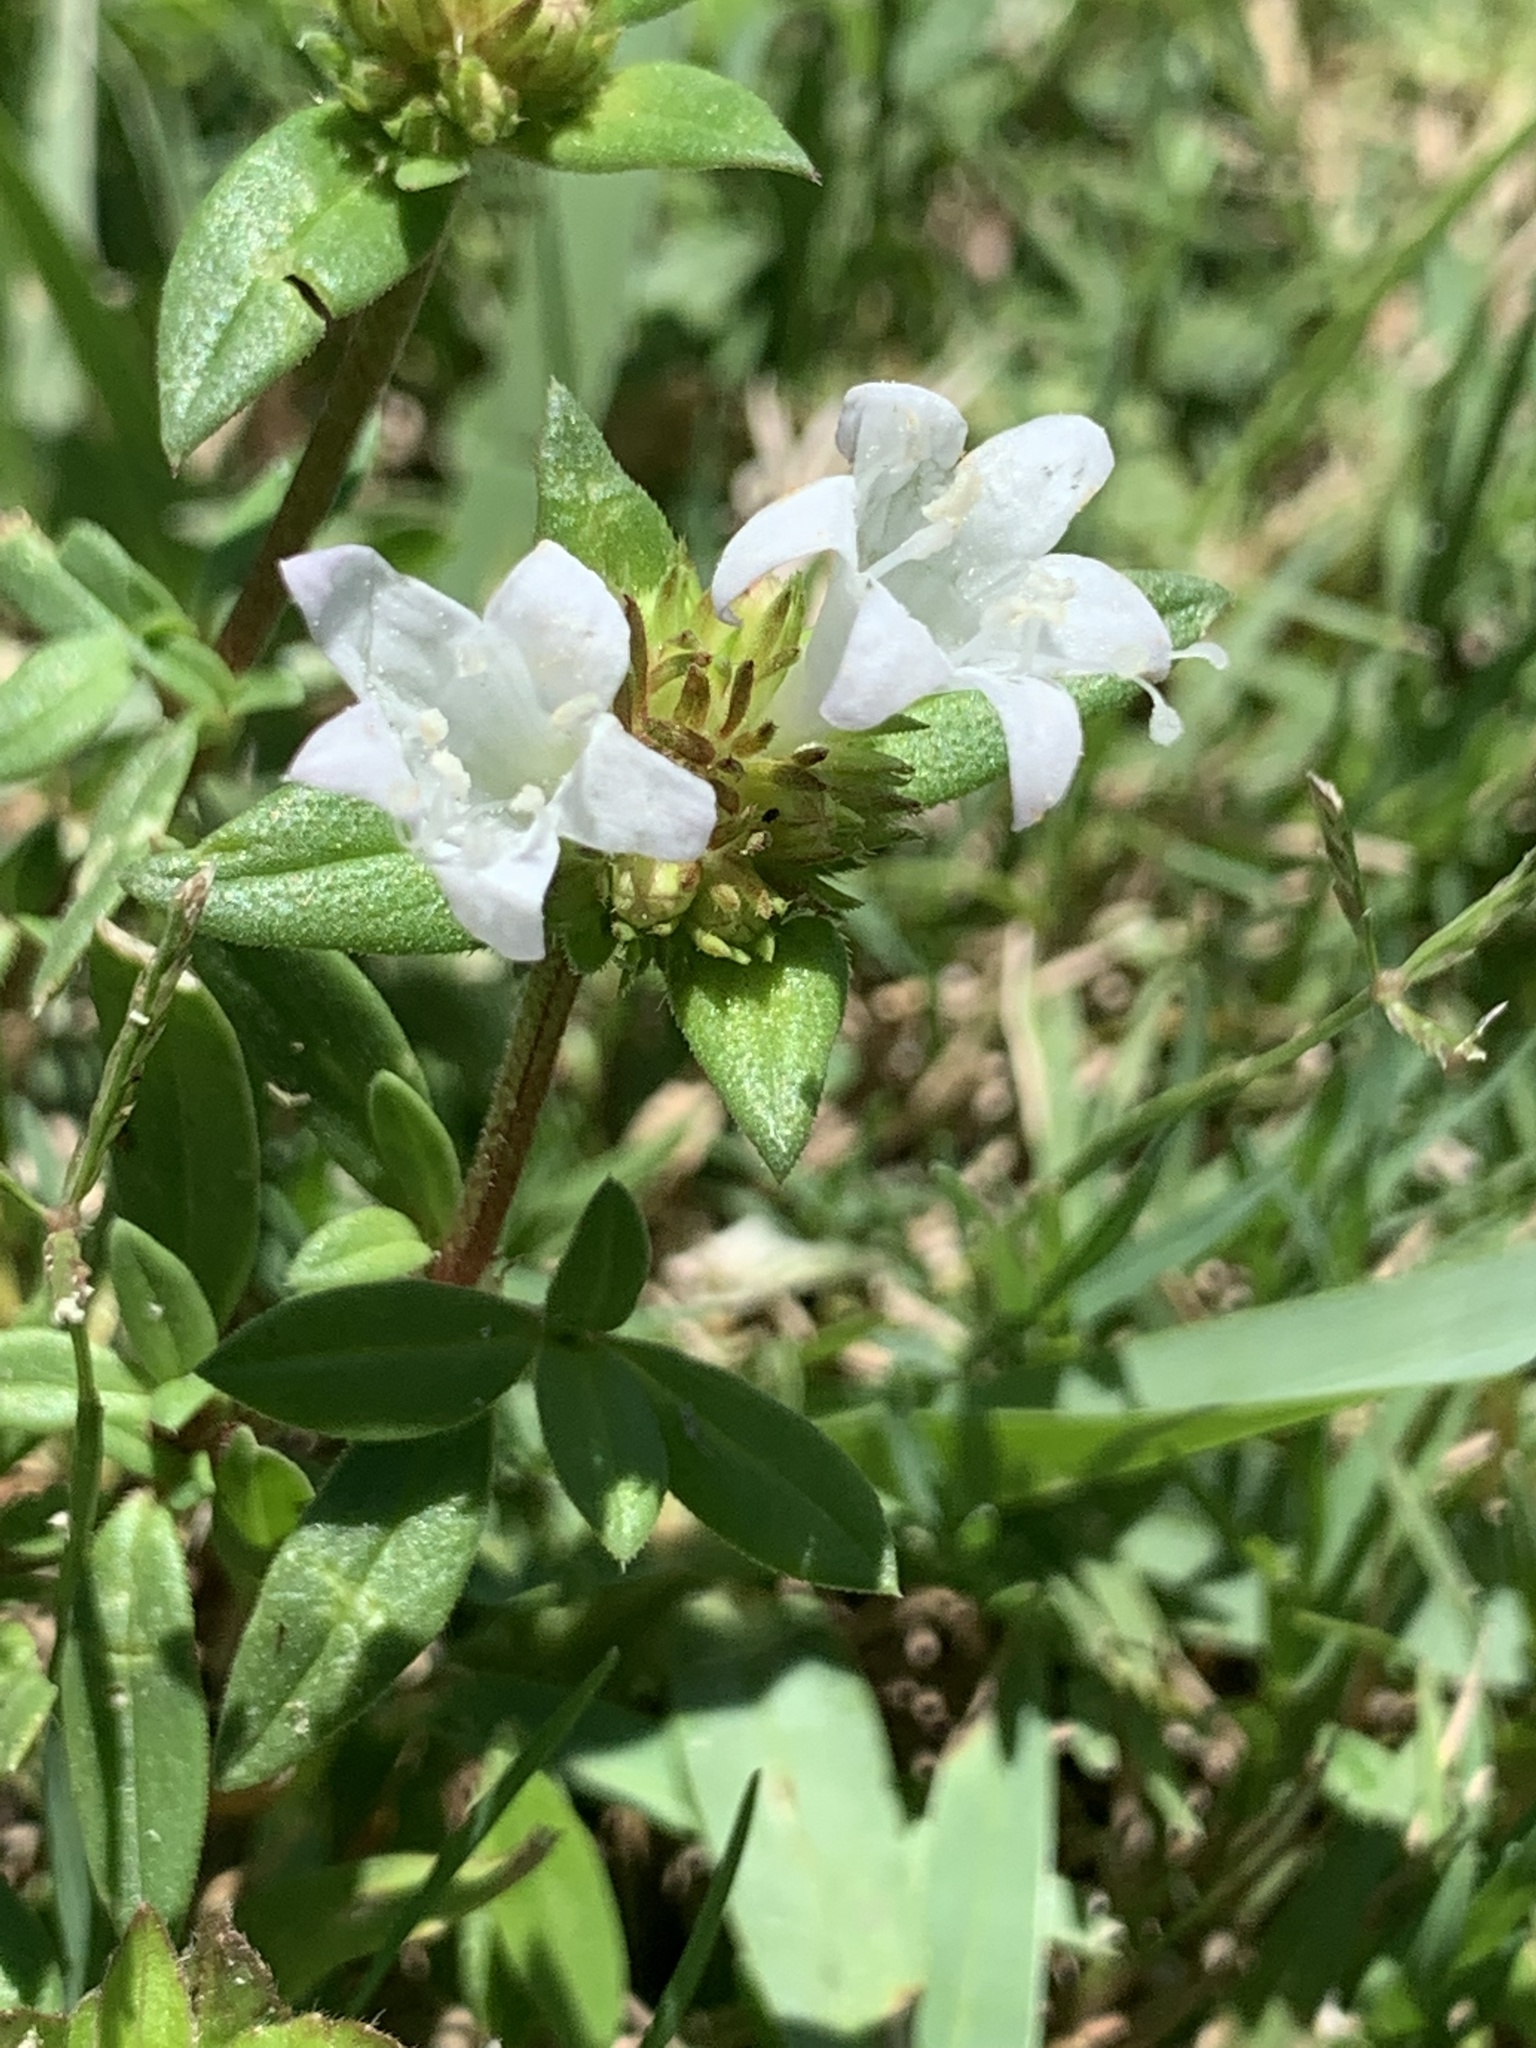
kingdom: Plantae
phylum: Tracheophyta
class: Magnoliopsida
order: Gentianales
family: Rubiaceae
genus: Richardia
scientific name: Richardia grandiflora
